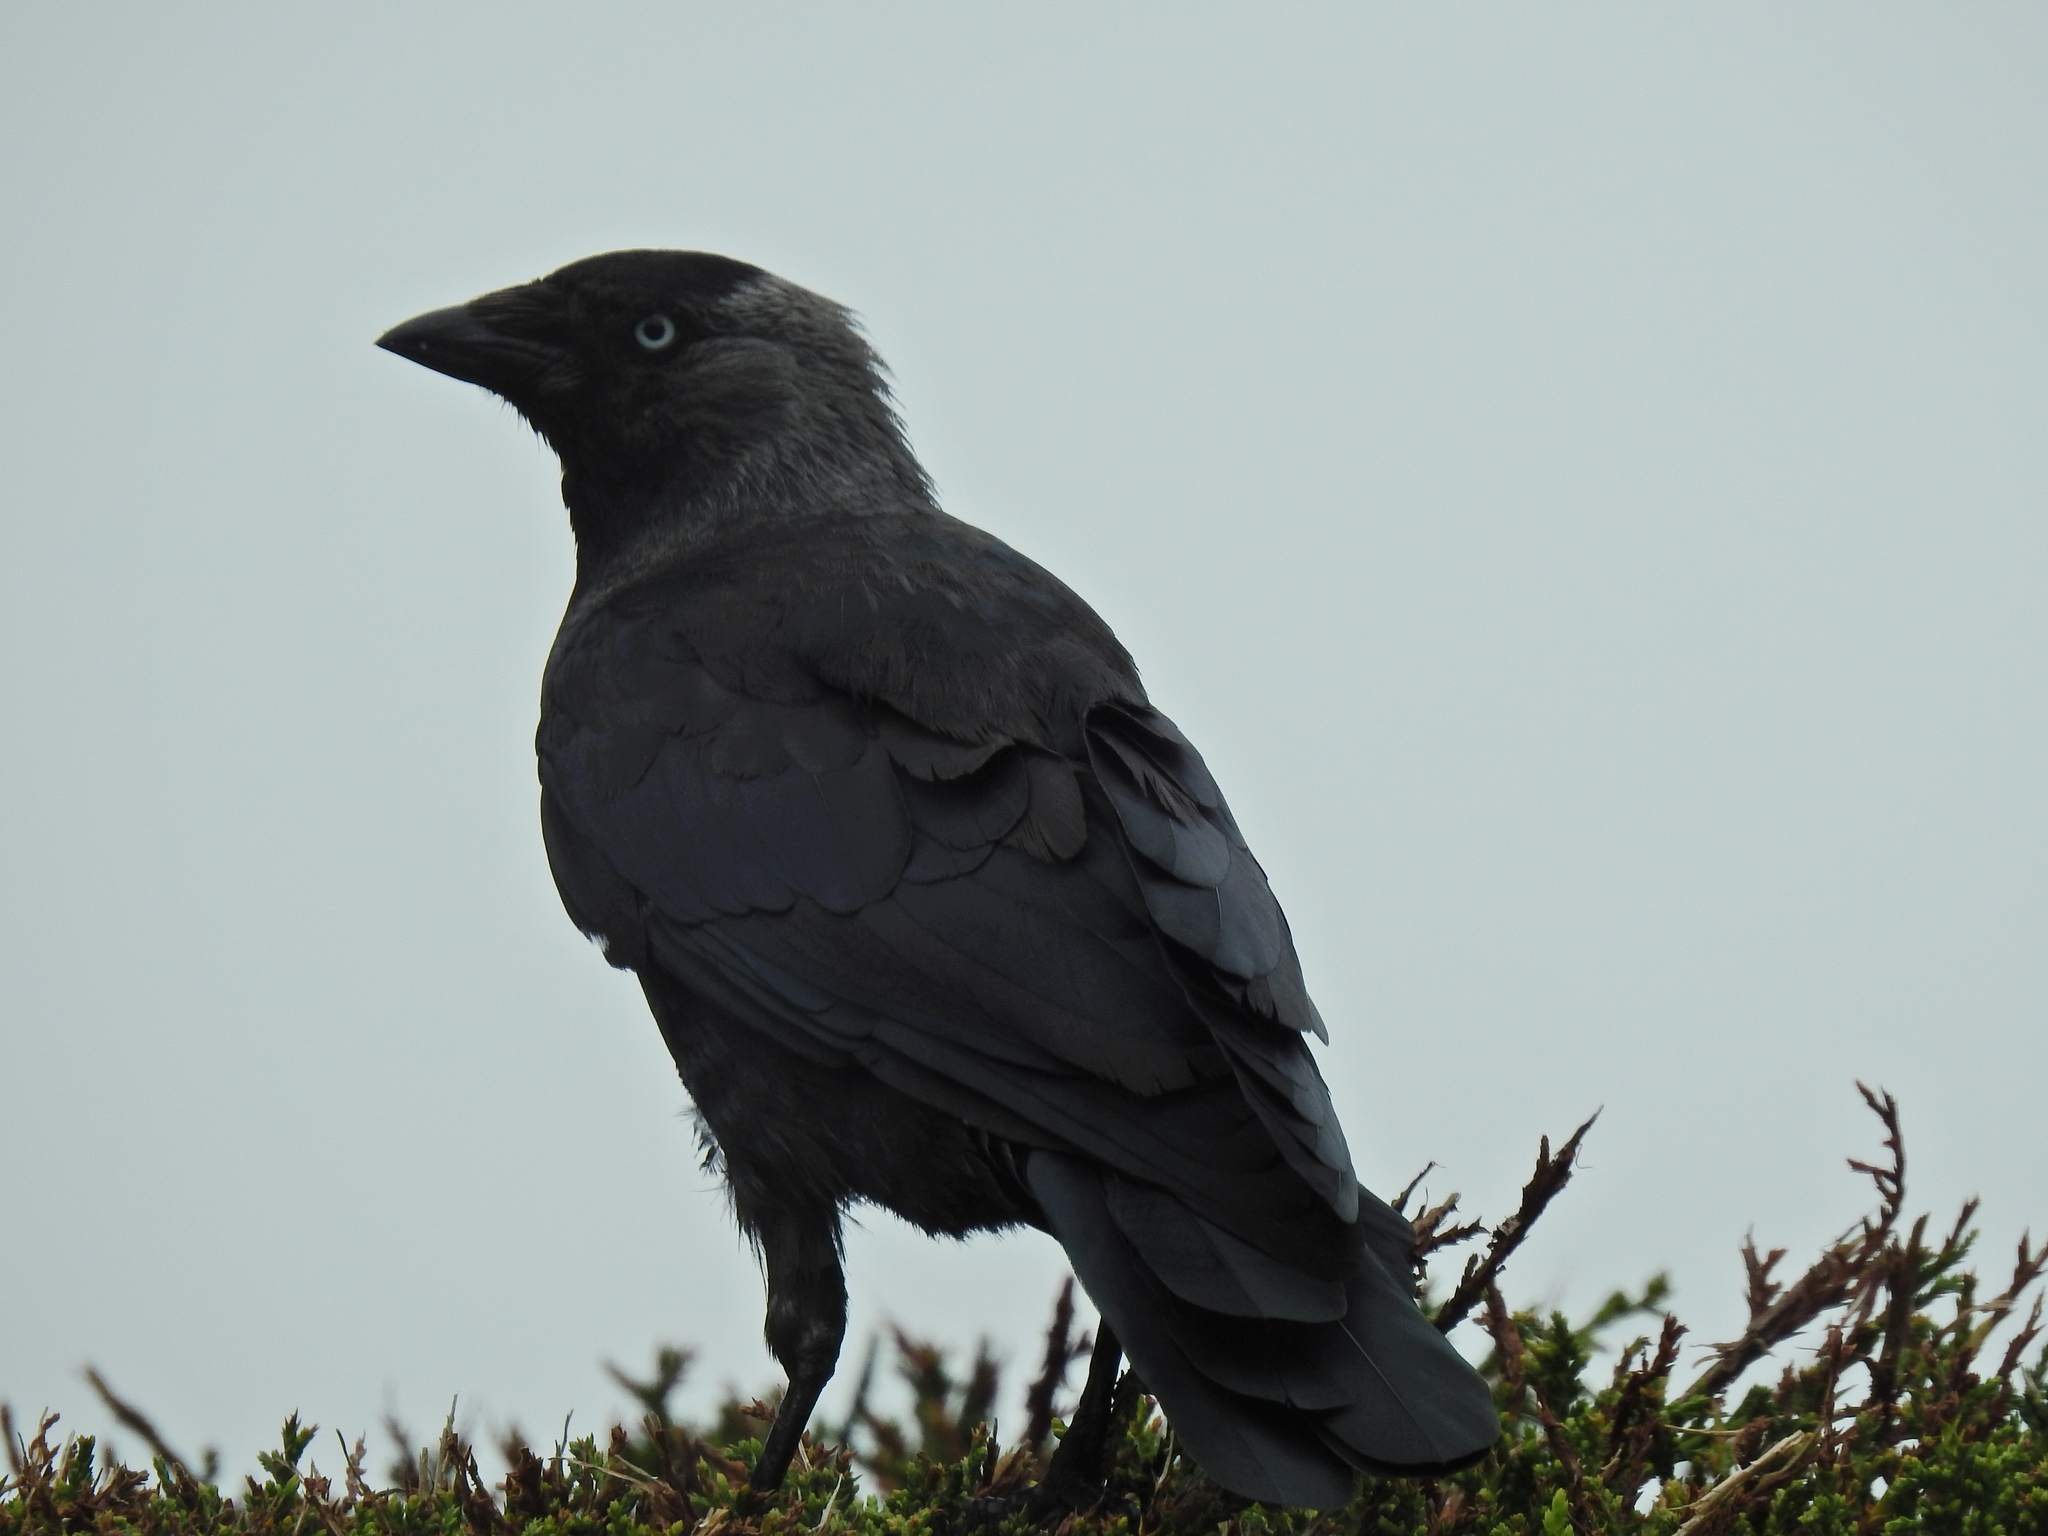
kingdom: Animalia
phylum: Chordata
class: Aves
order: Passeriformes
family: Corvidae
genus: Coloeus
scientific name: Coloeus monedula
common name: Western jackdaw
